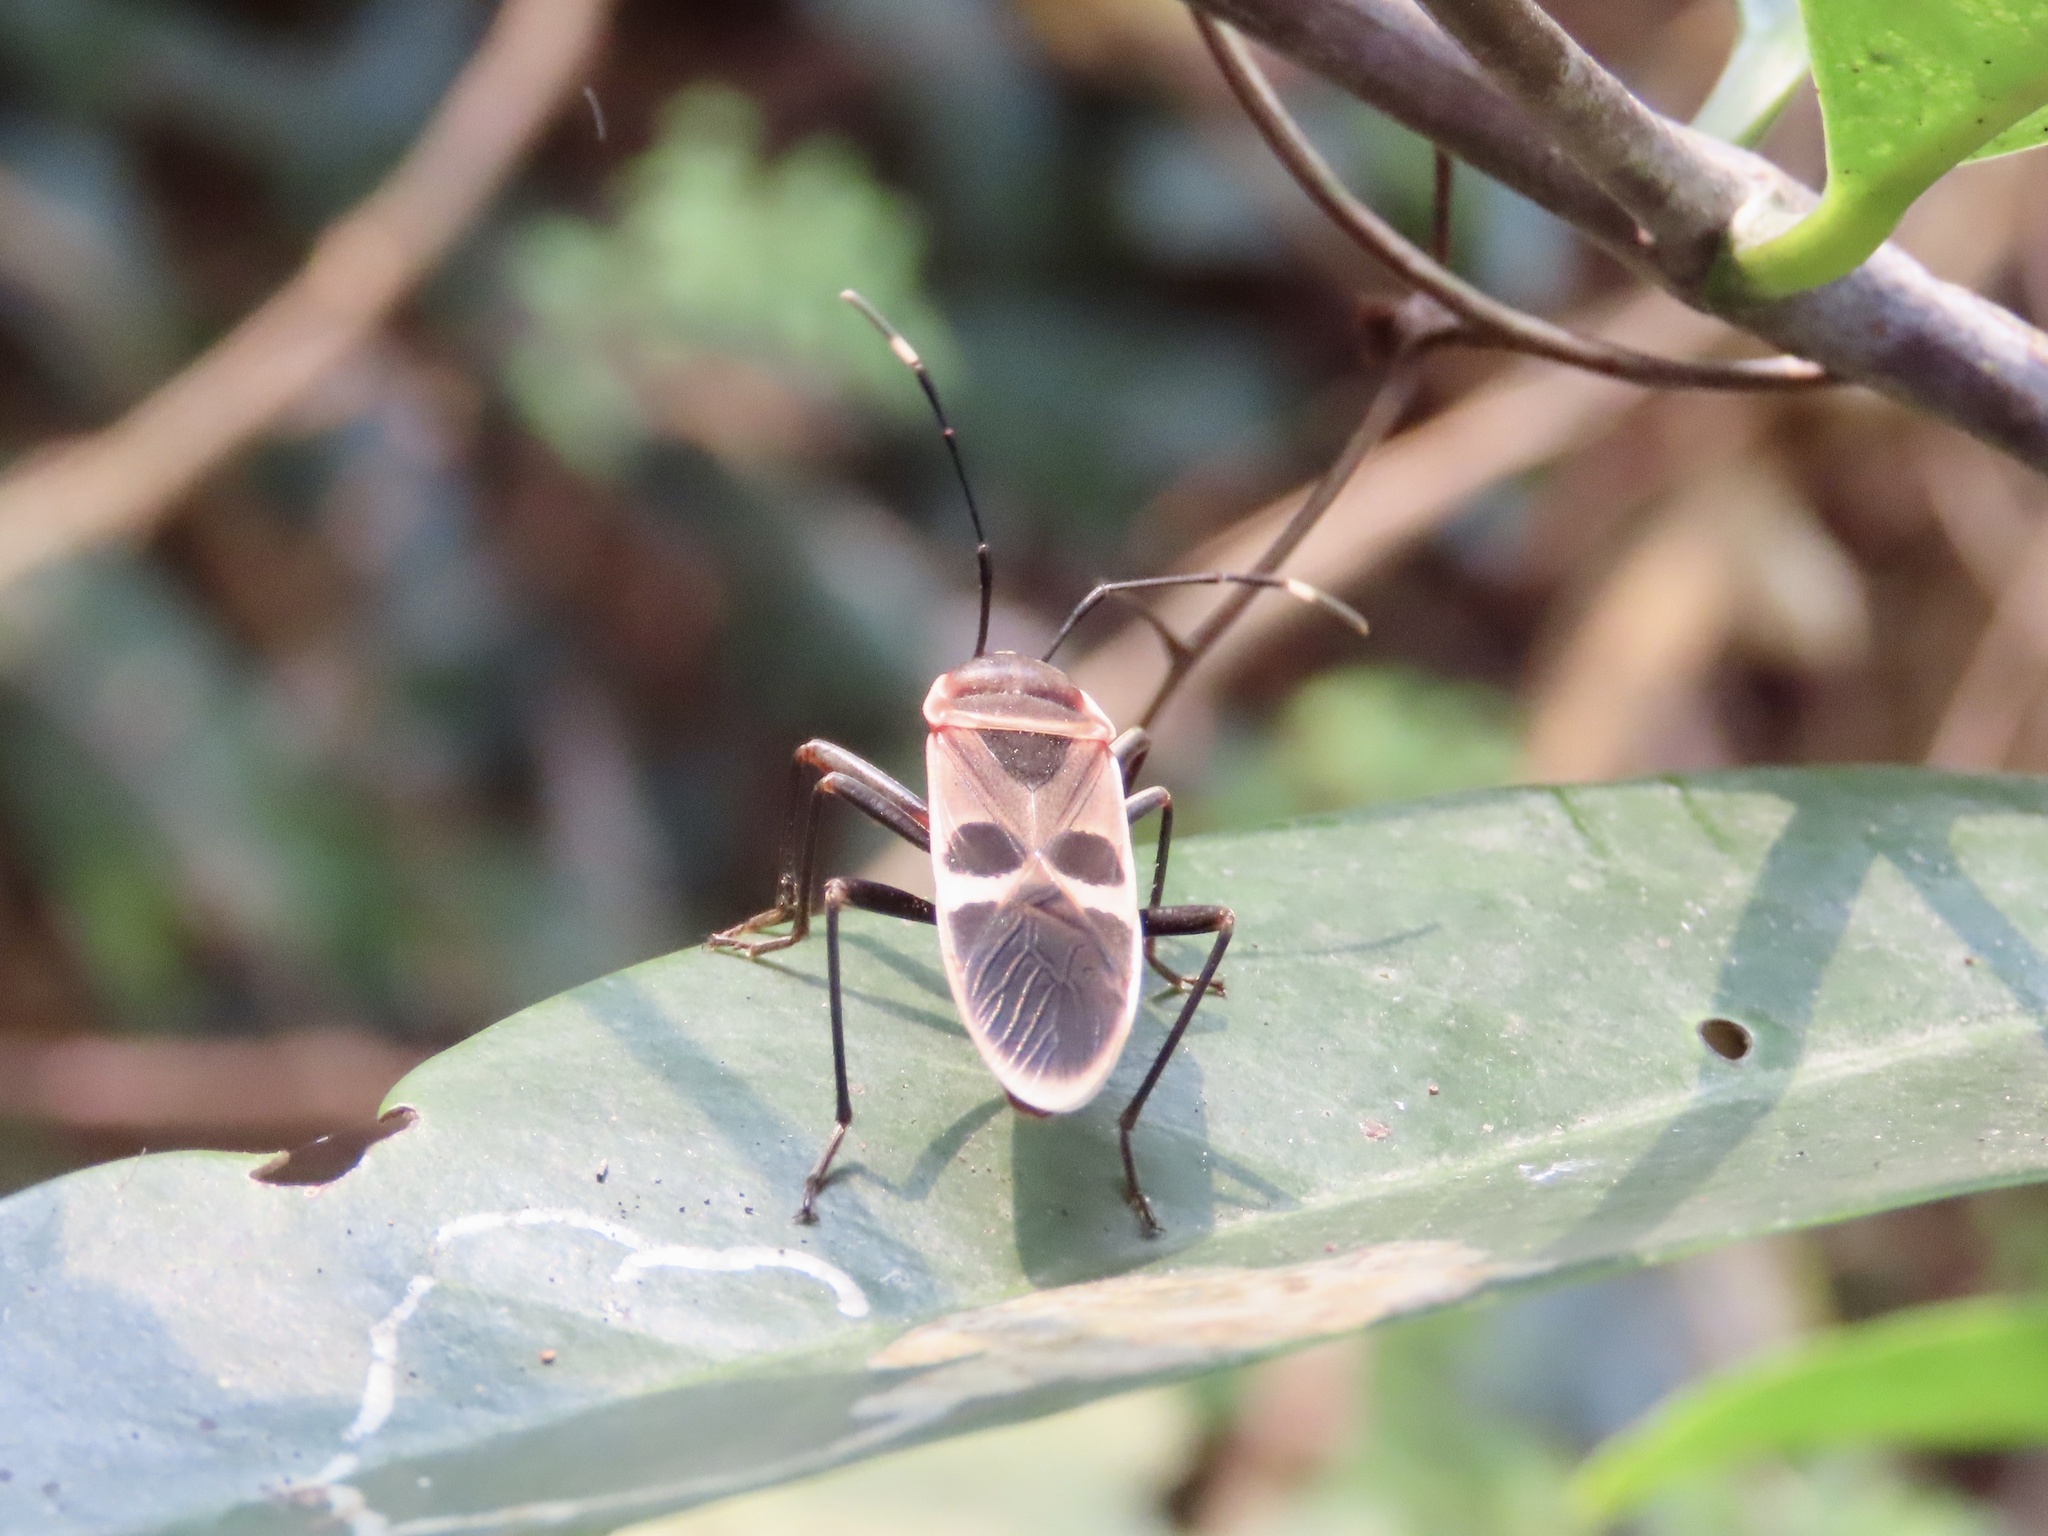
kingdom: Animalia
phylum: Arthropoda
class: Insecta
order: Hemiptera
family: Largidae
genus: Physopelta
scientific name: Physopelta gutta
